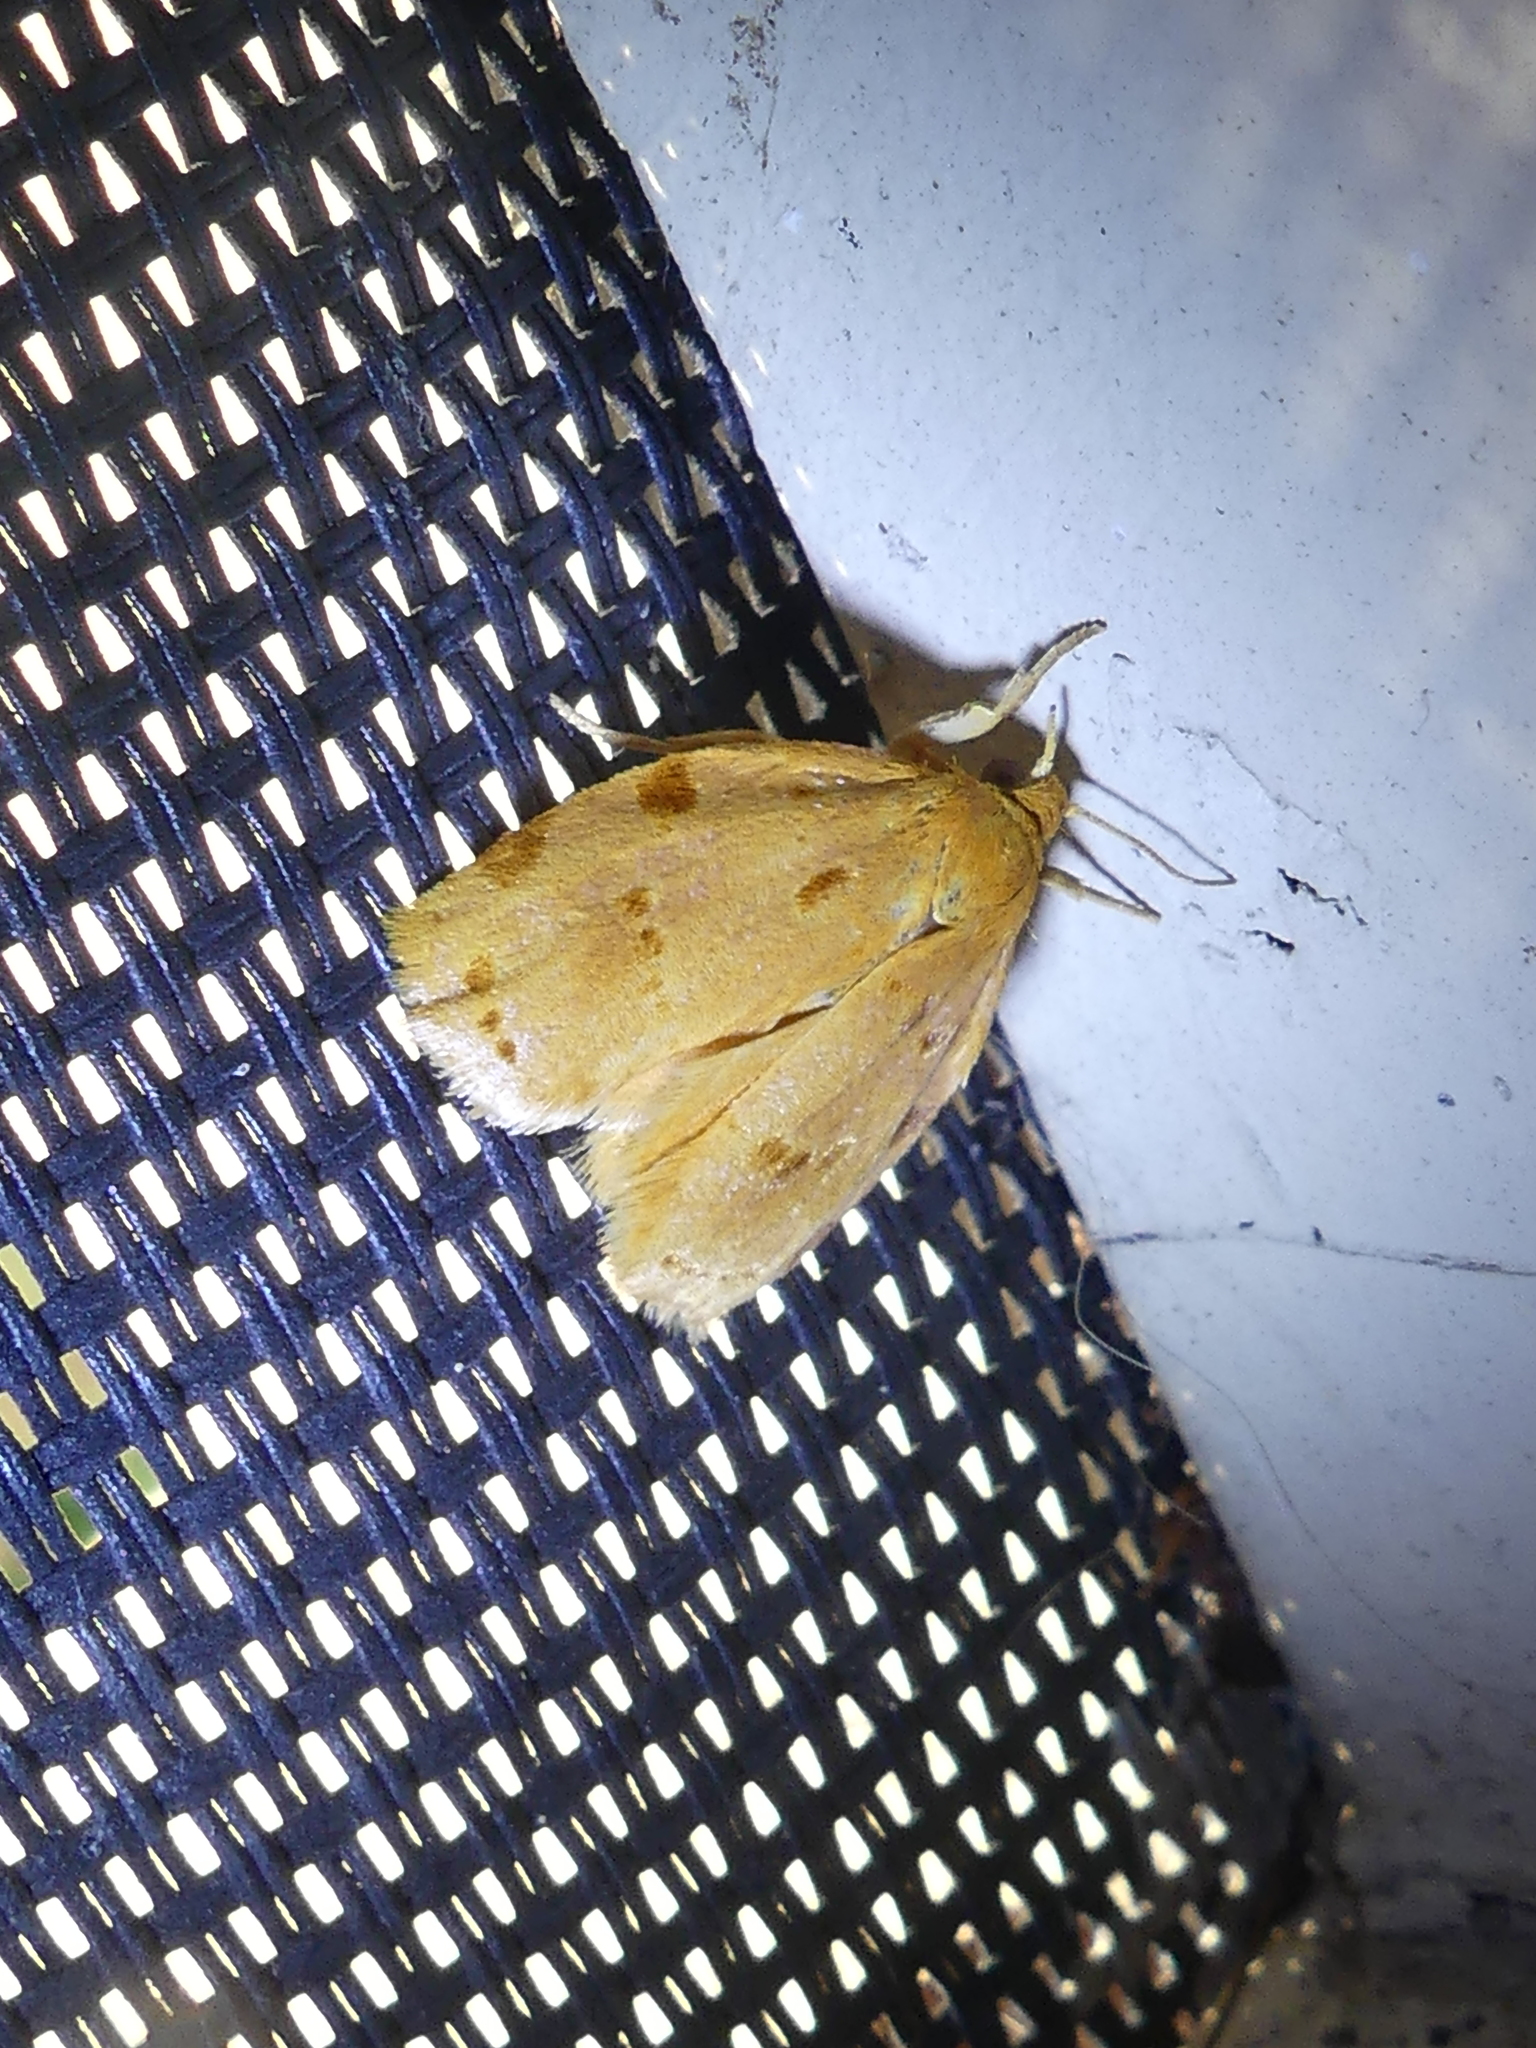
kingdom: Animalia
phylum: Arthropoda
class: Insecta
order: Lepidoptera
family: Tortricidae
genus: Archips
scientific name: Archips rileyana
